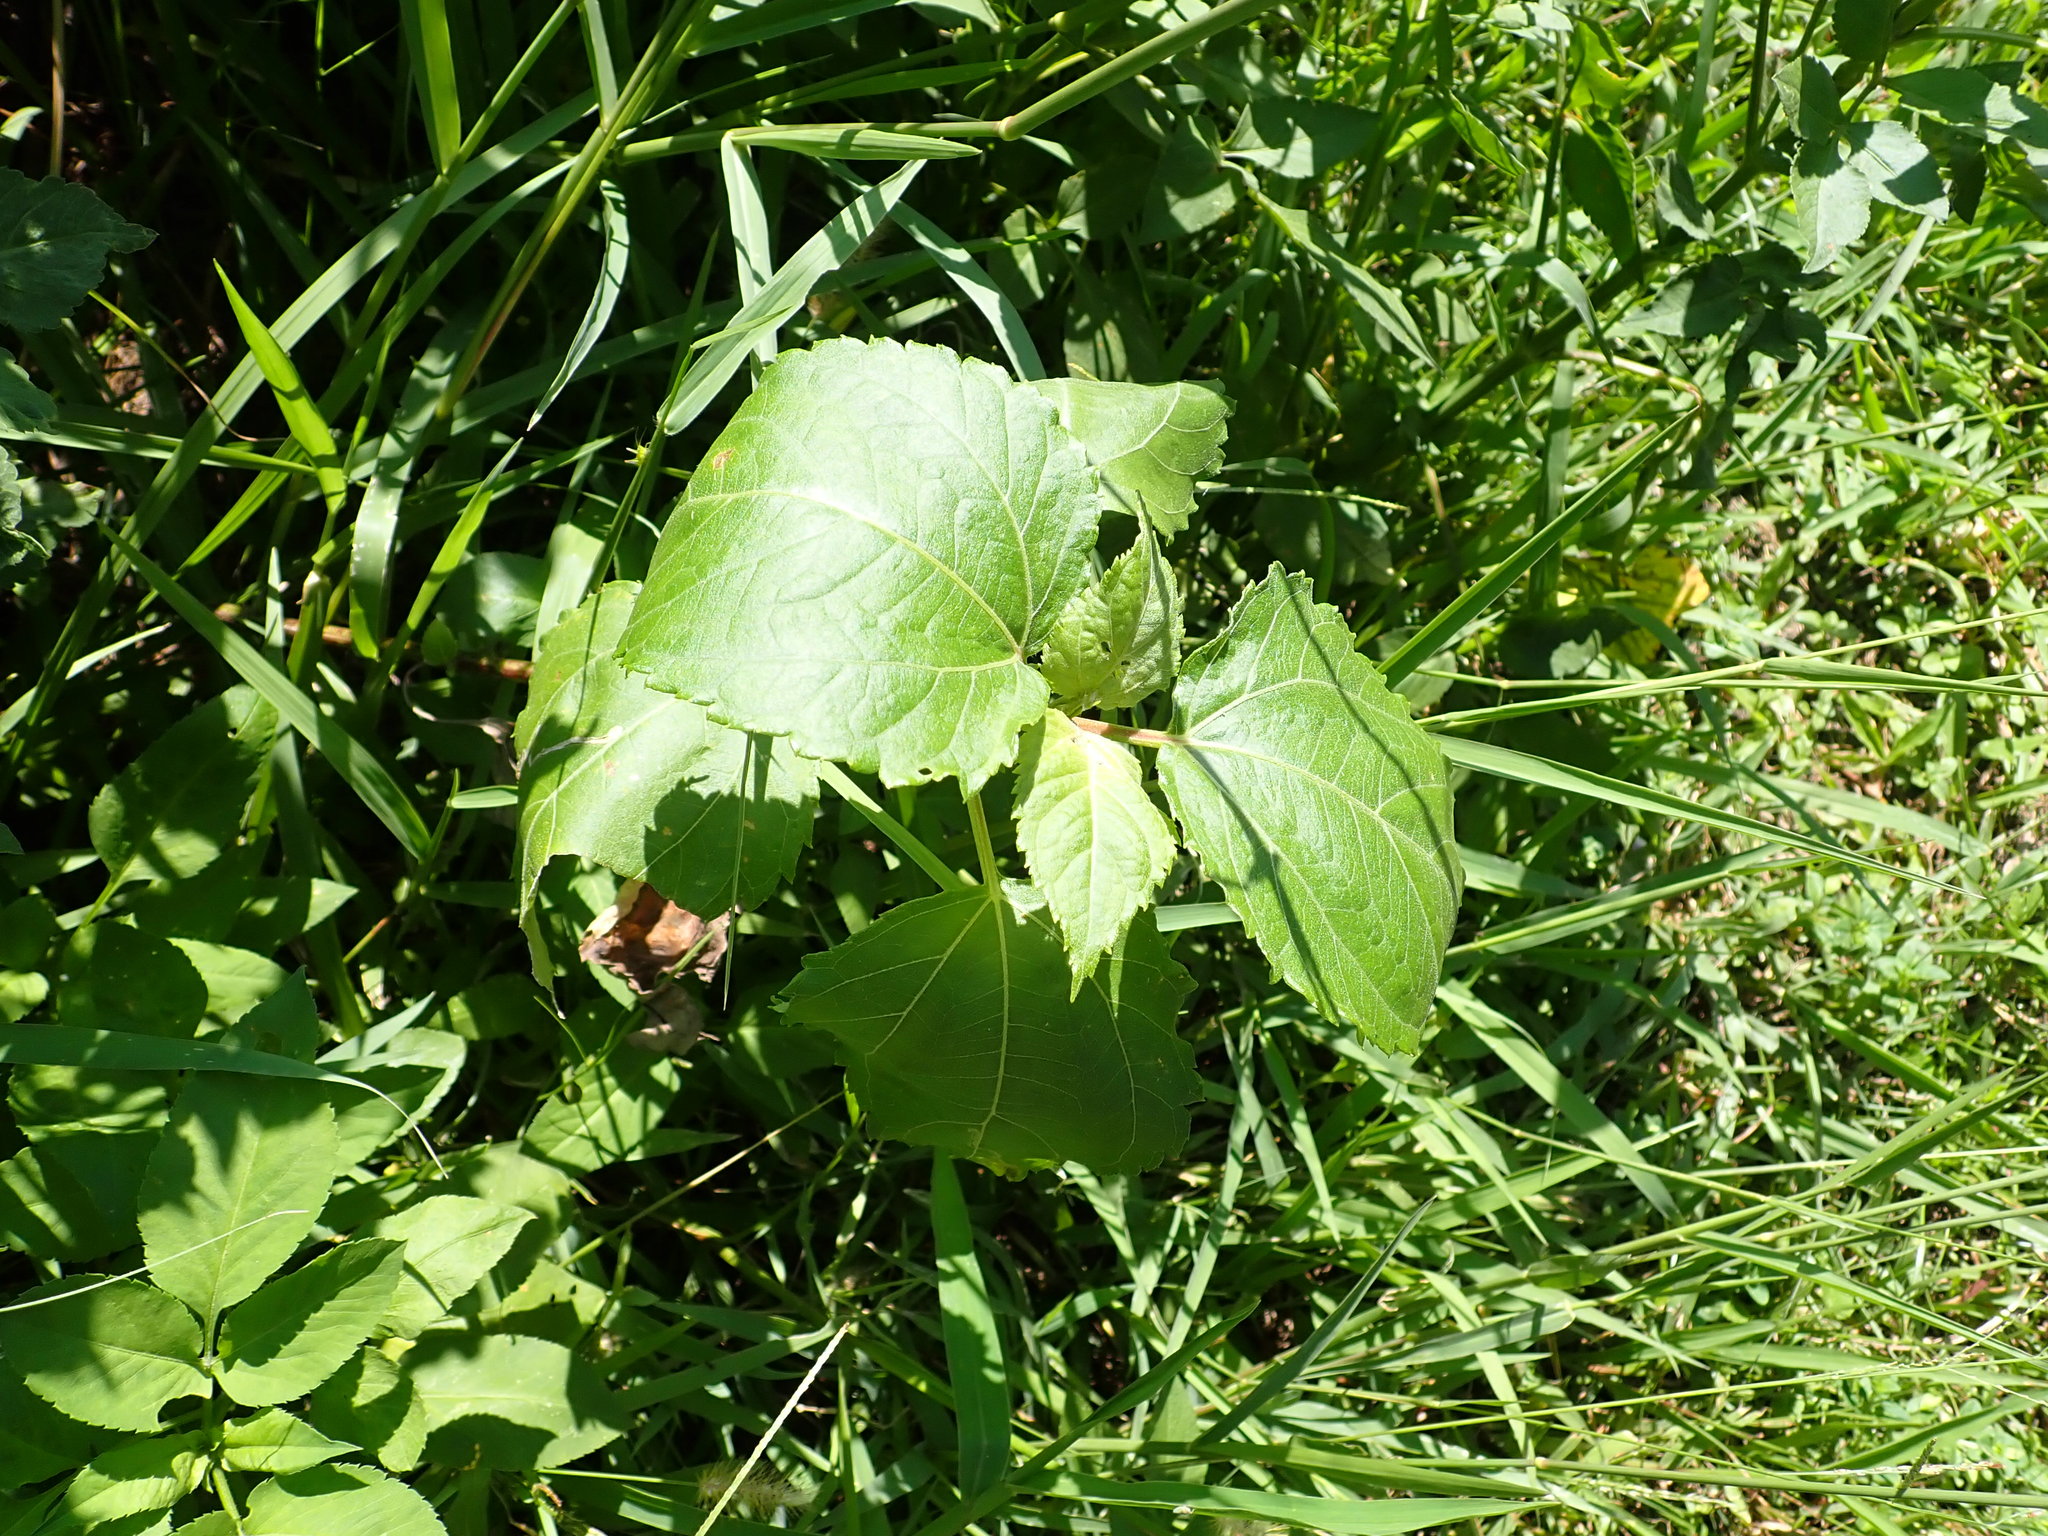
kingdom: Plantae
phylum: Tracheophyta
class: Magnoliopsida
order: Asterales
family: Asteraceae
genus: Wollastonia
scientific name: Wollastonia biflora
